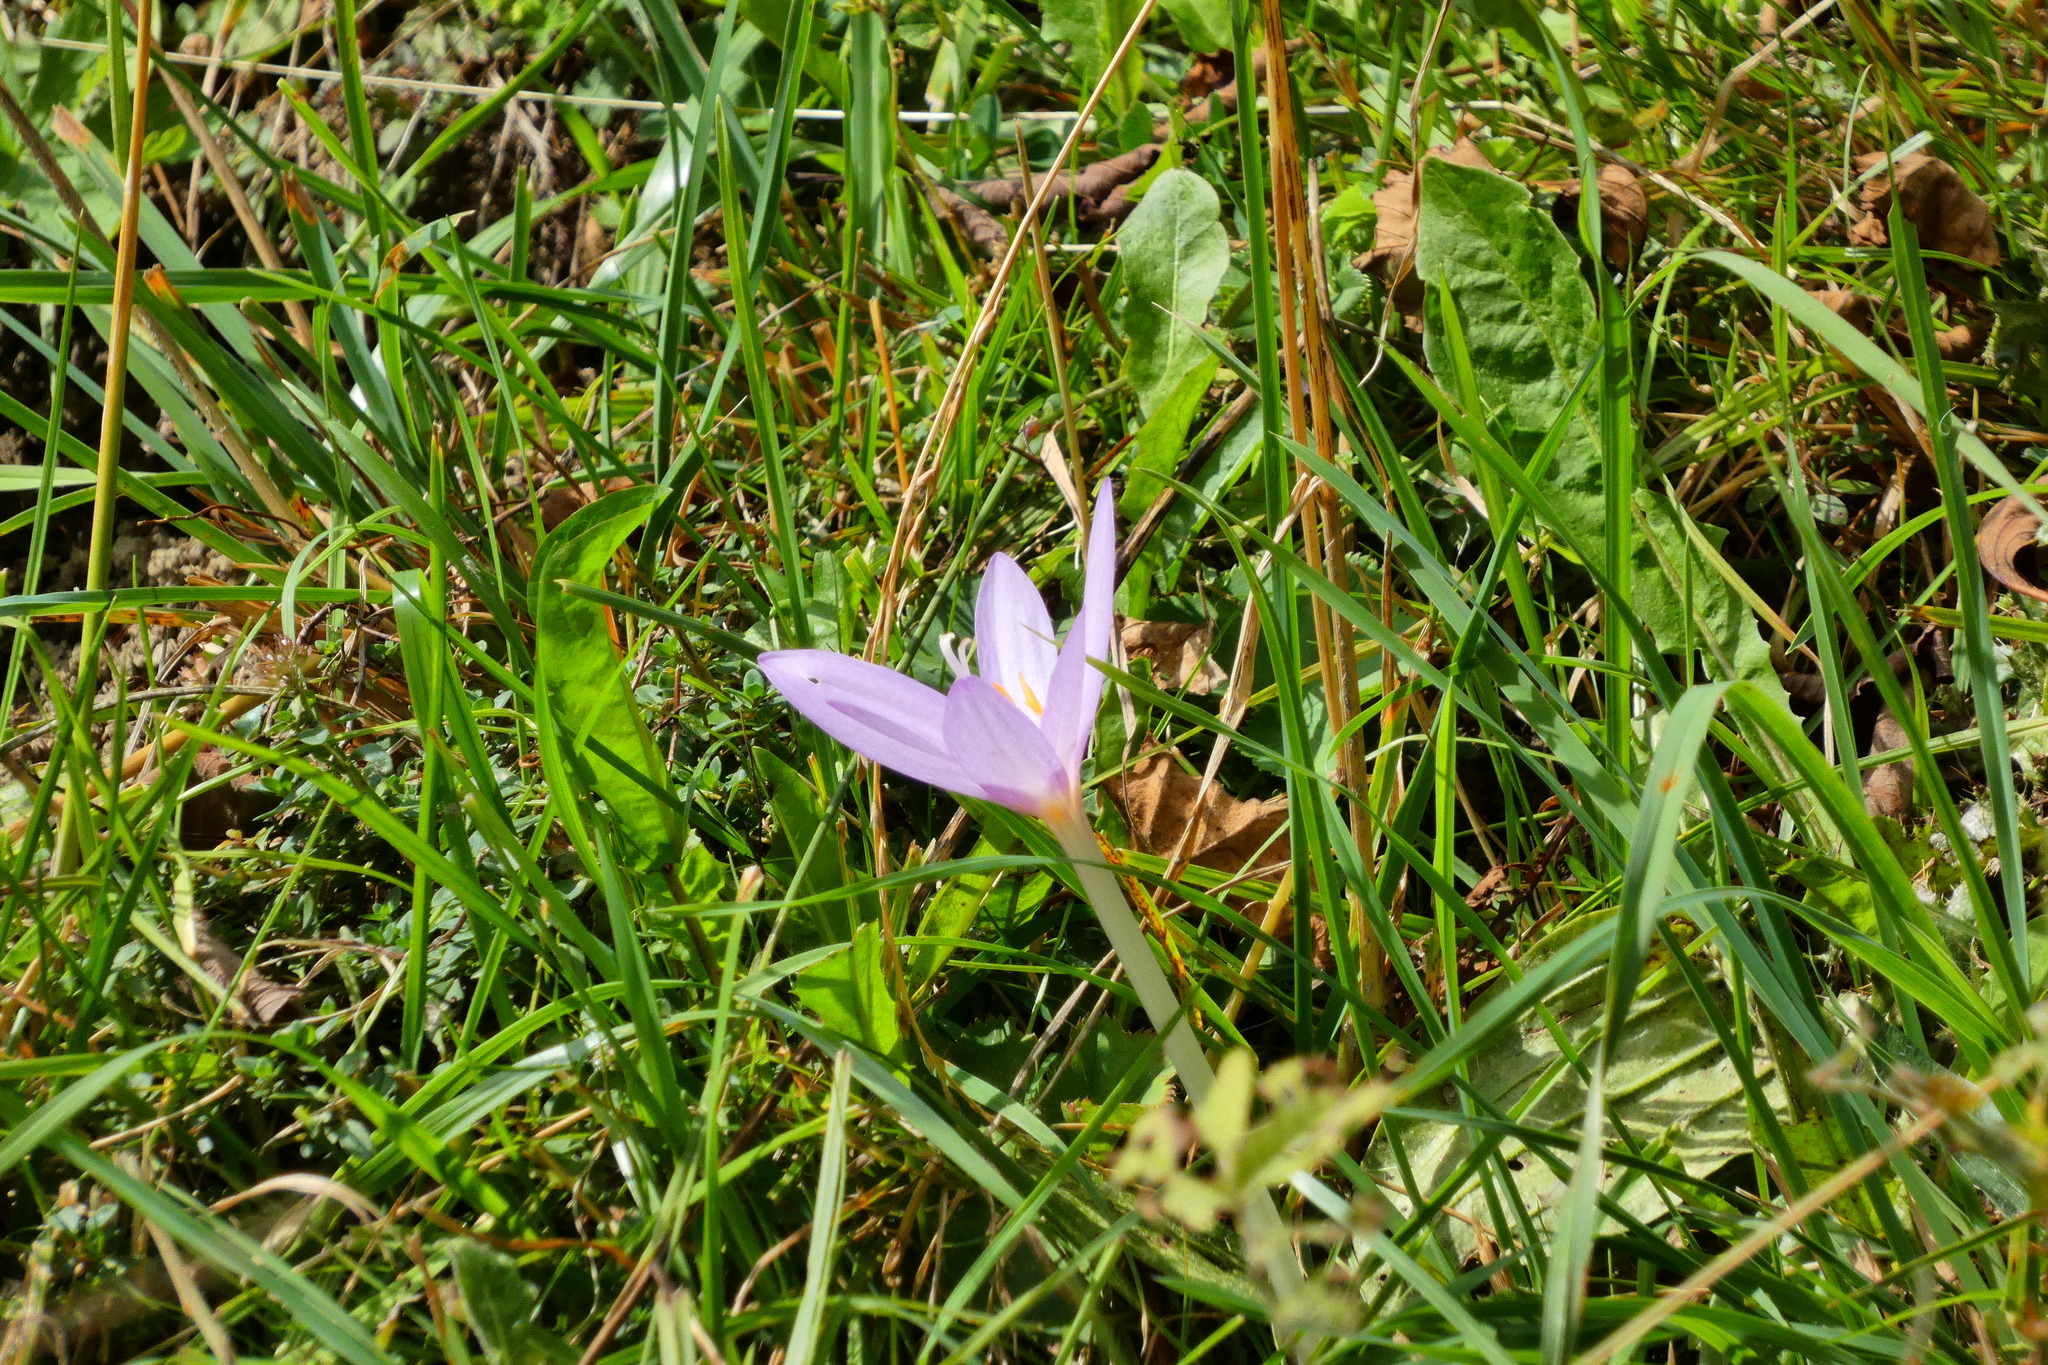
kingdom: Plantae
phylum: Tracheophyta
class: Liliopsida
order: Liliales
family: Colchicaceae
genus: Colchicum
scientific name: Colchicum autumnale
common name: Autumn crocus
